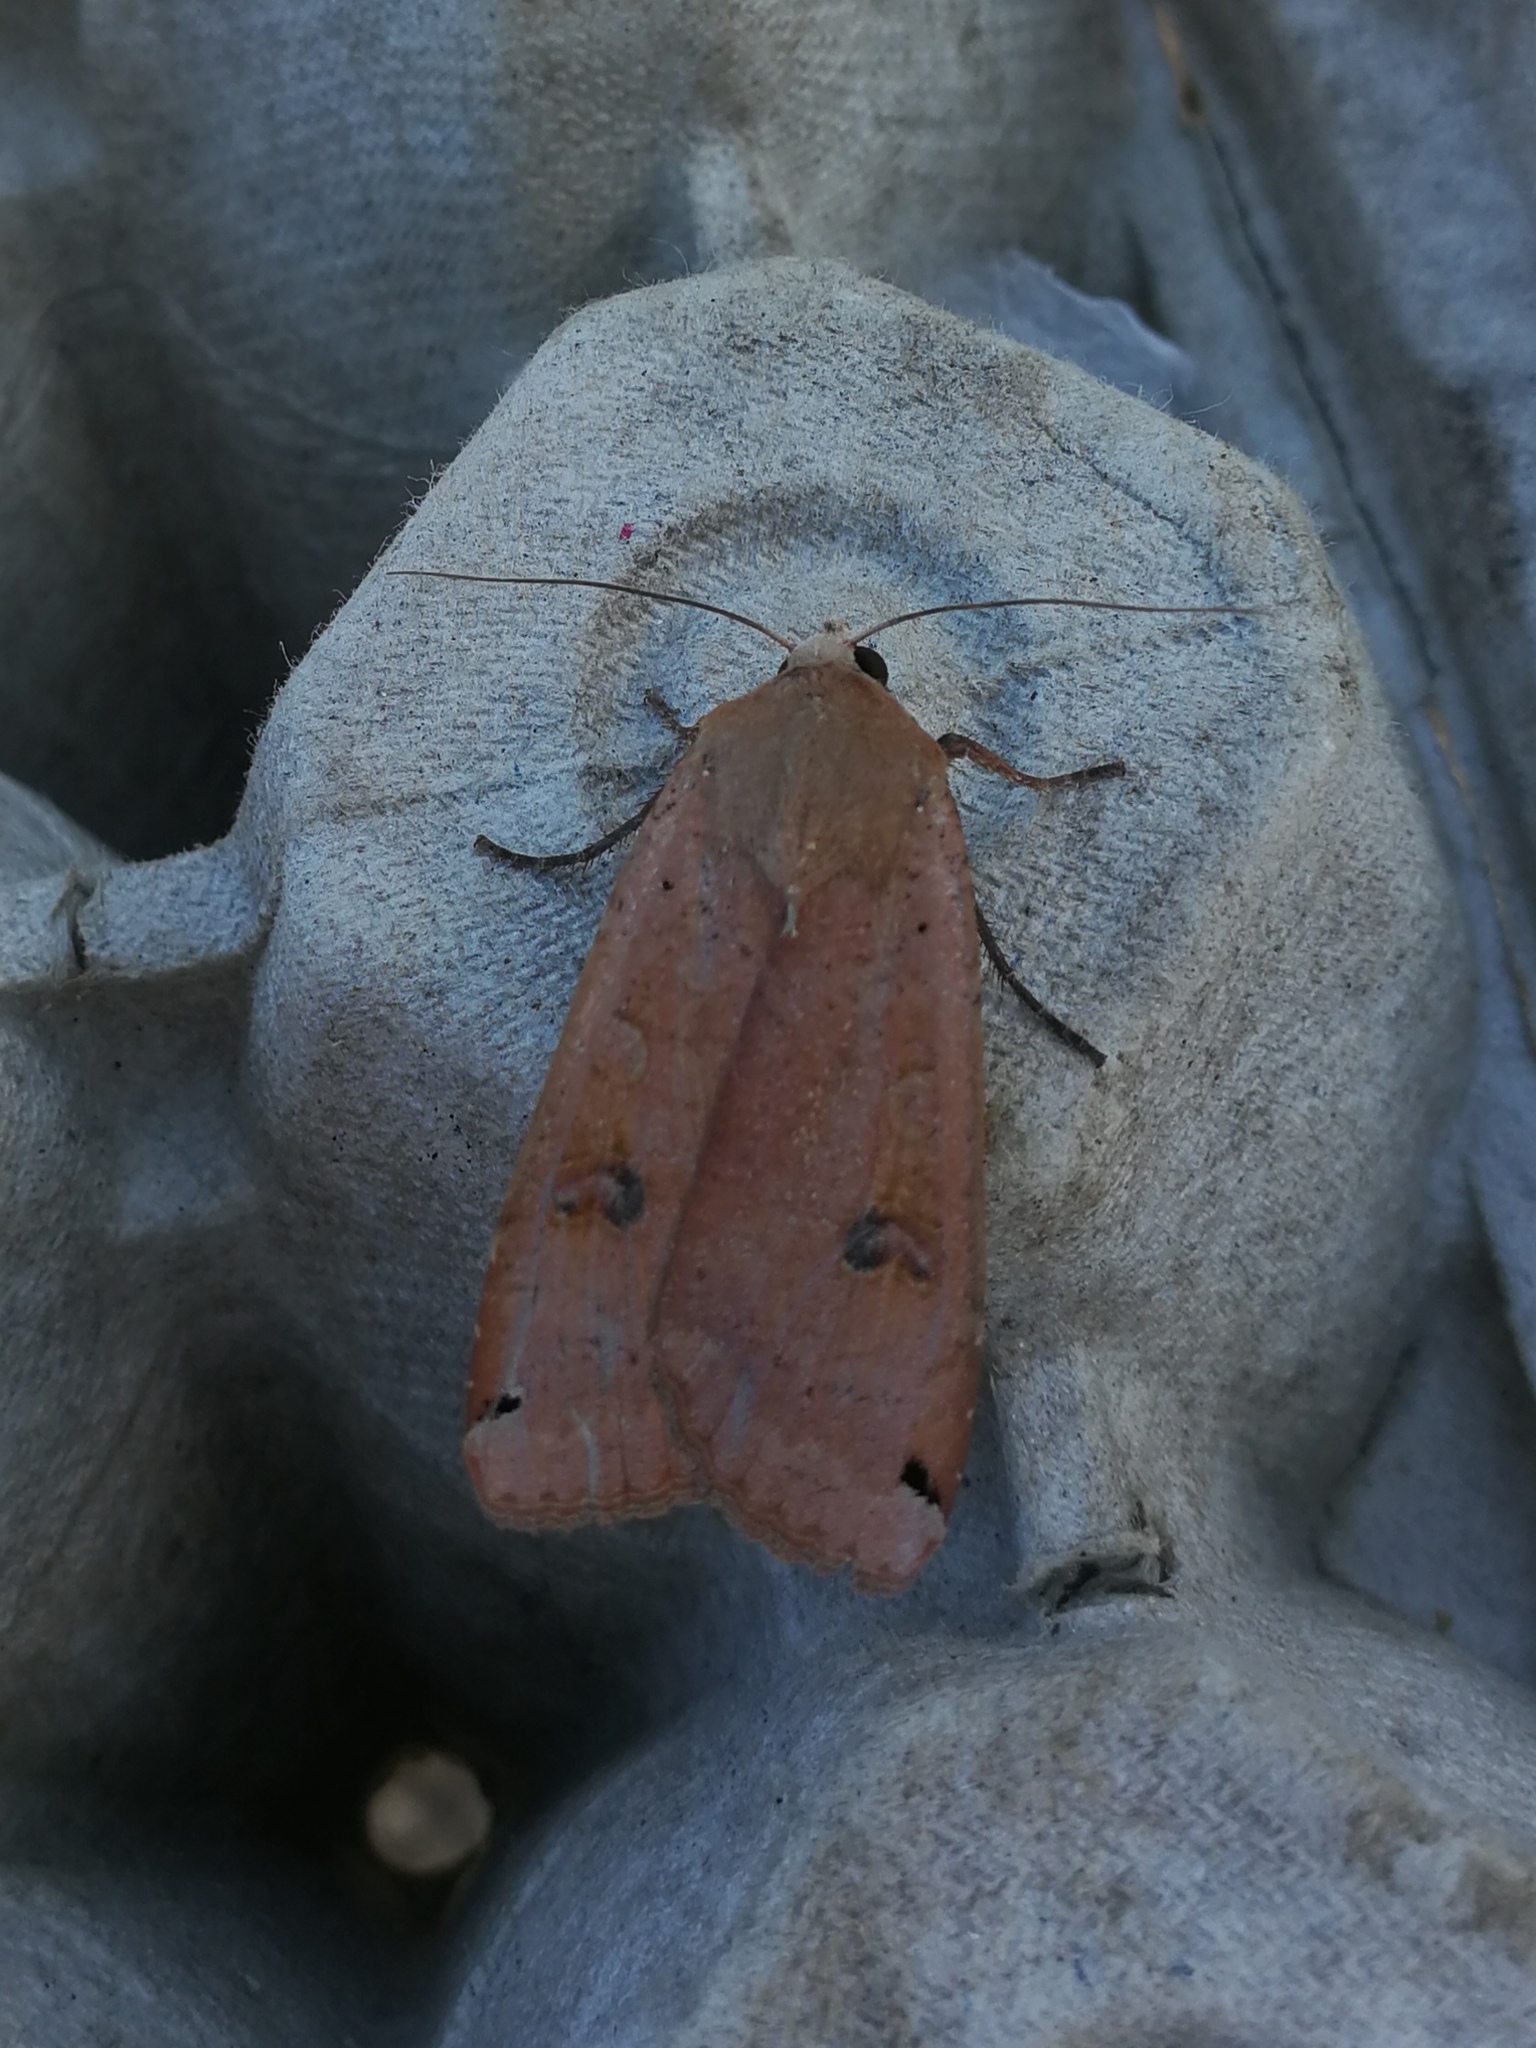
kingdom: Animalia
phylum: Arthropoda
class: Insecta
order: Lepidoptera
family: Noctuidae
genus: Noctua
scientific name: Noctua pronuba
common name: Large yellow underwing
